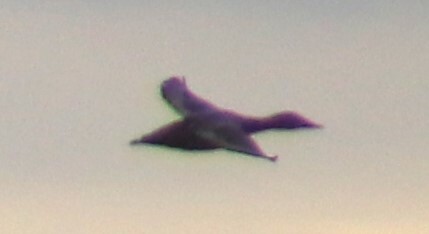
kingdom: Animalia
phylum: Chordata
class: Aves
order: Anseriformes
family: Anatidae
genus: Aythya
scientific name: Aythya valisineria
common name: Canvasback
